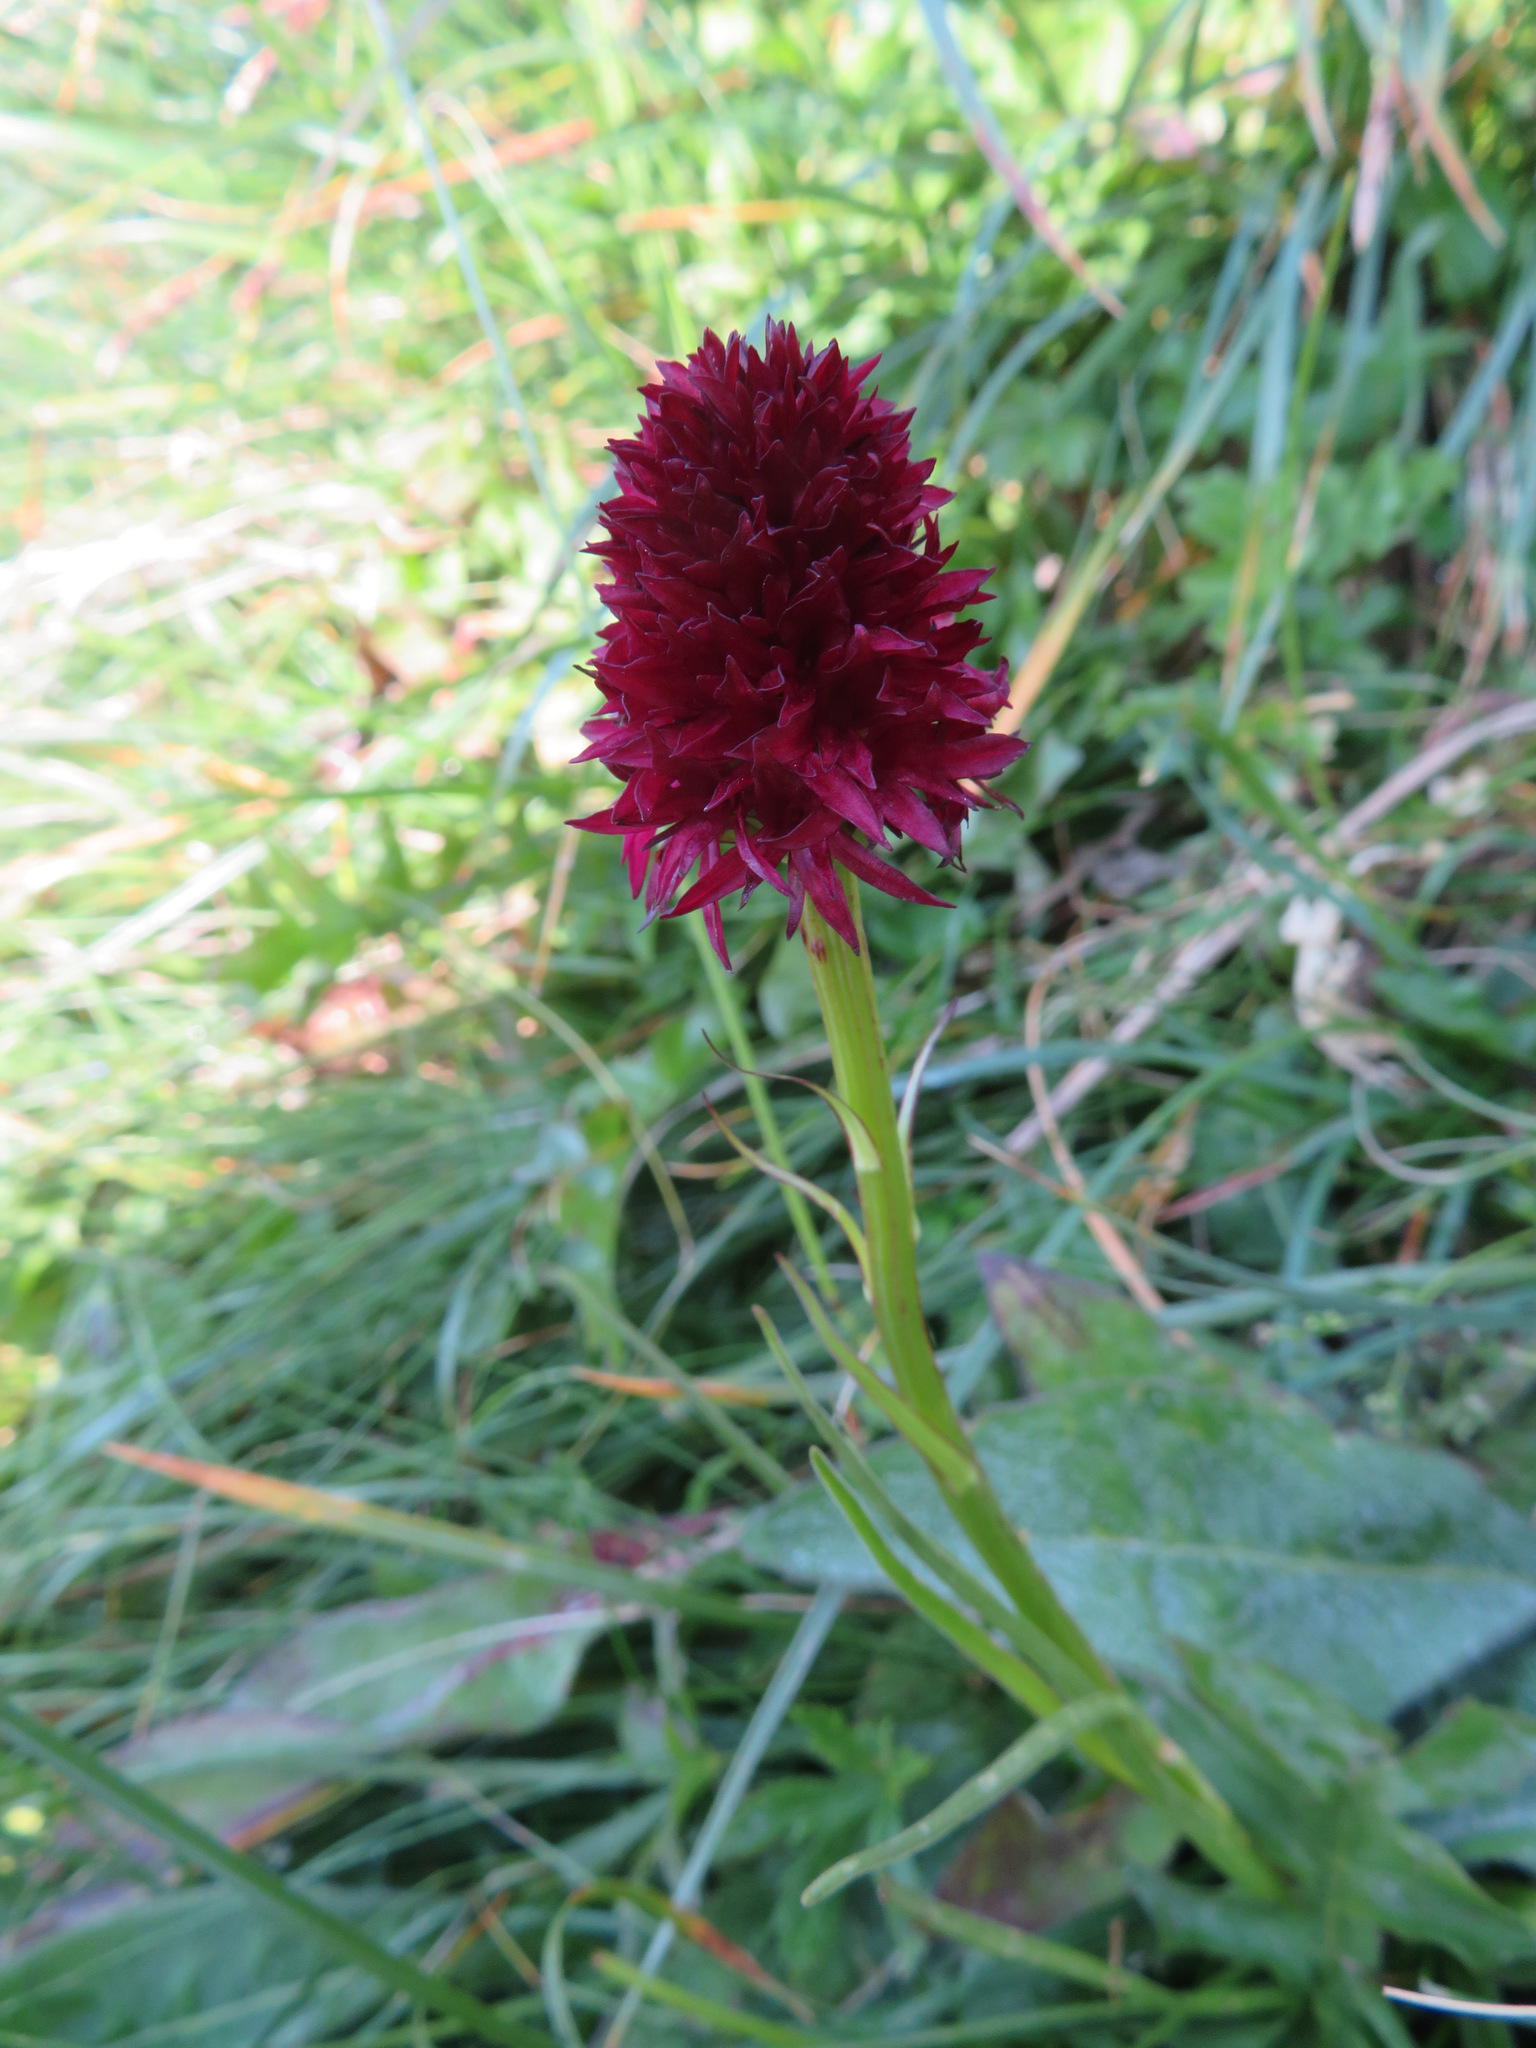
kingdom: Plantae
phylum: Tracheophyta
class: Liliopsida
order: Asparagales
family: Orchidaceae
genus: Gymnadenia
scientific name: Gymnadenia rhellicani
